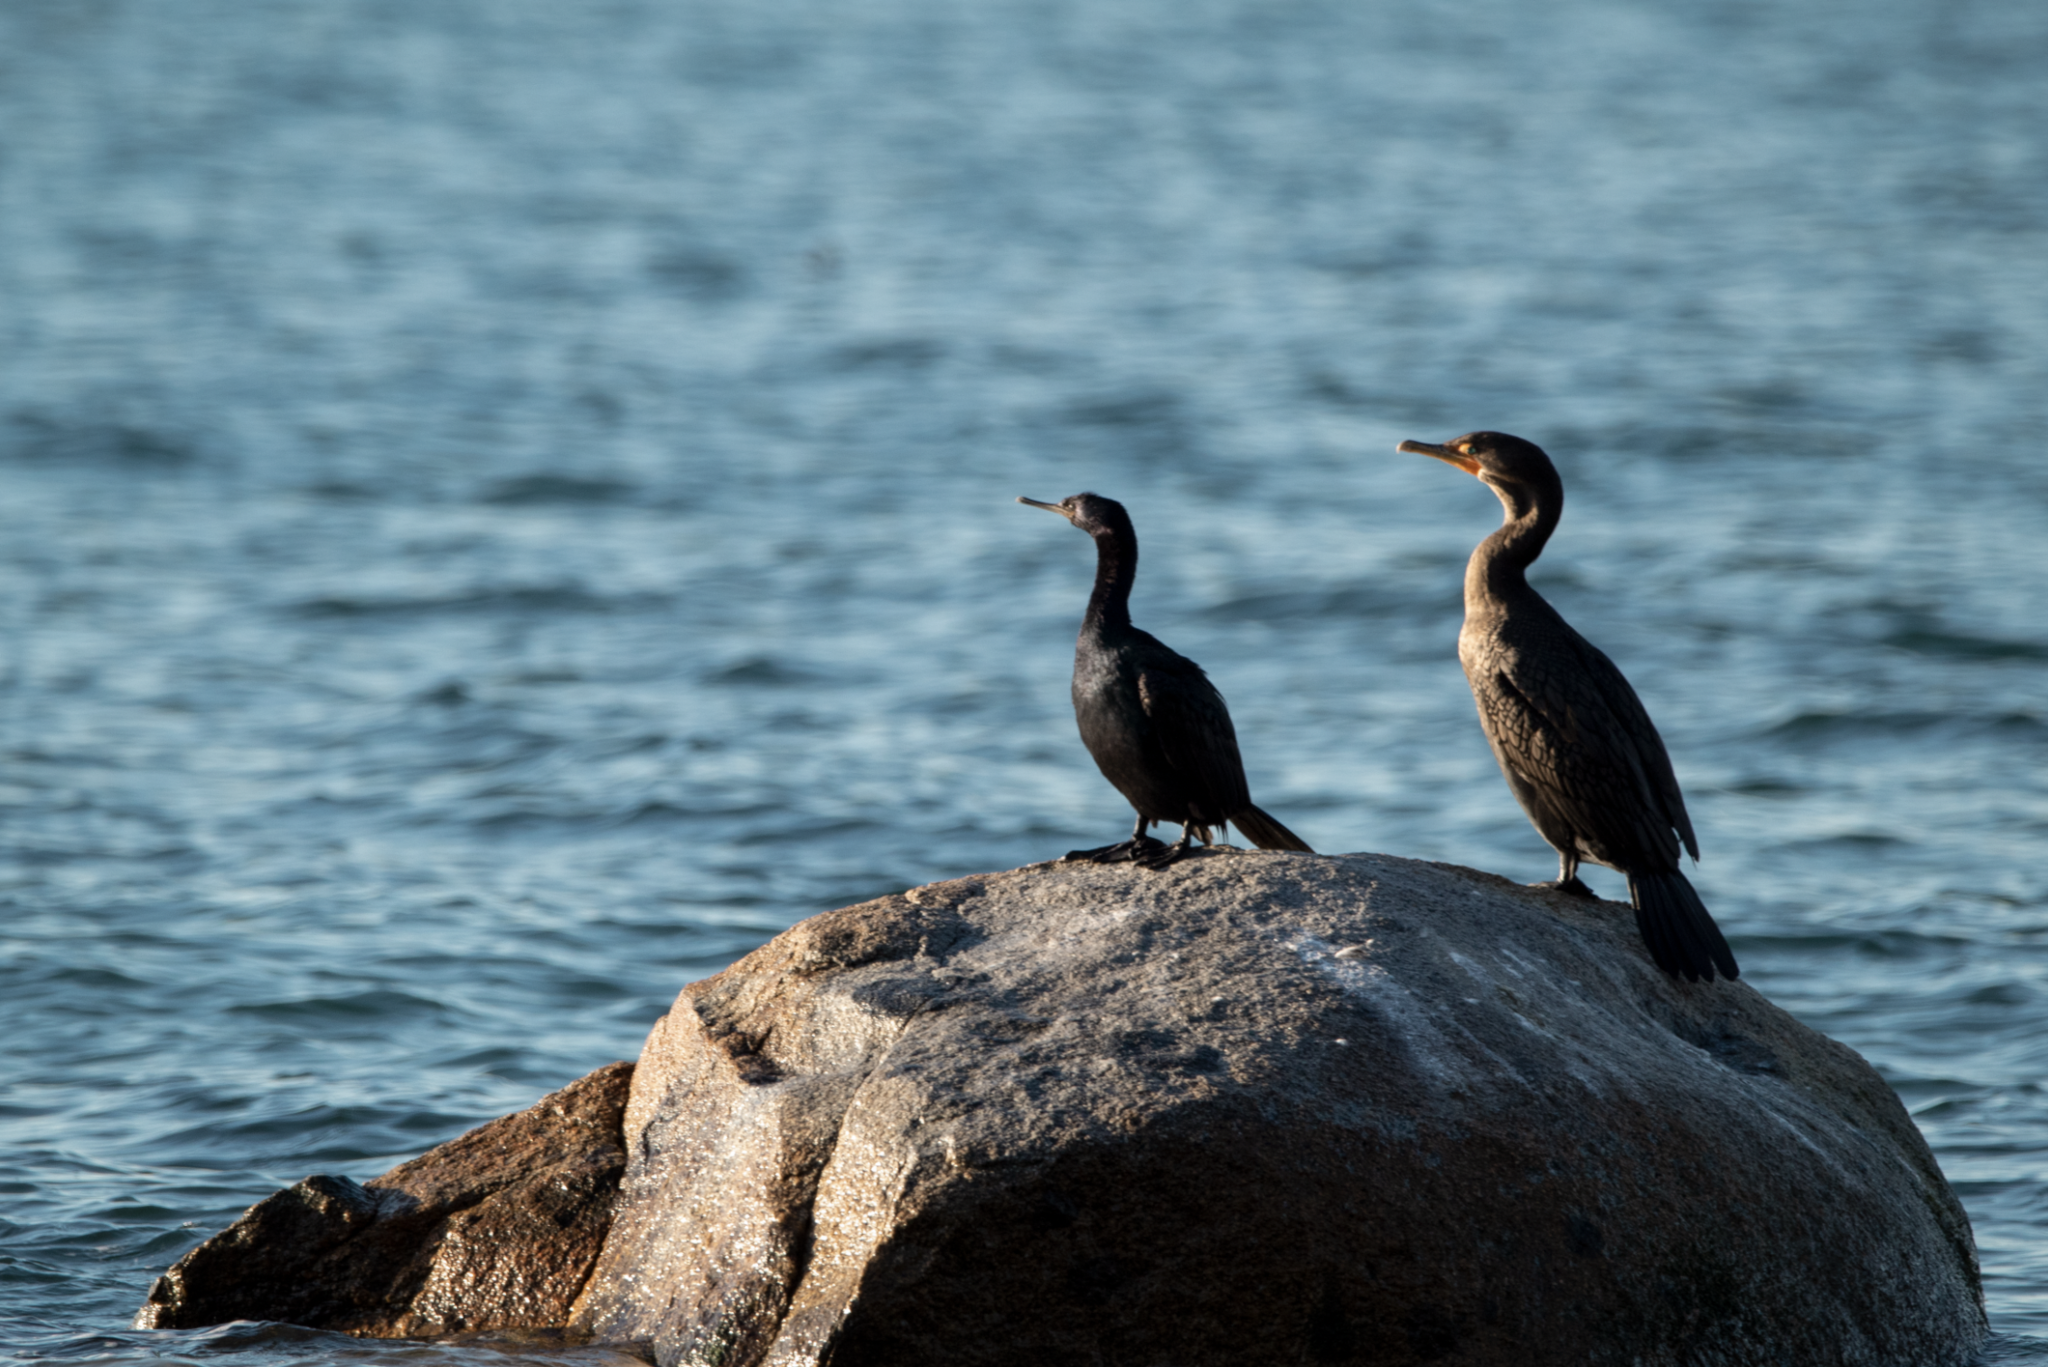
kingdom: Animalia
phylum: Chordata
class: Aves
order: Suliformes
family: Phalacrocoracidae
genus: Phalacrocorax
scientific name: Phalacrocorax pelagicus
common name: Pelagic cormorant
